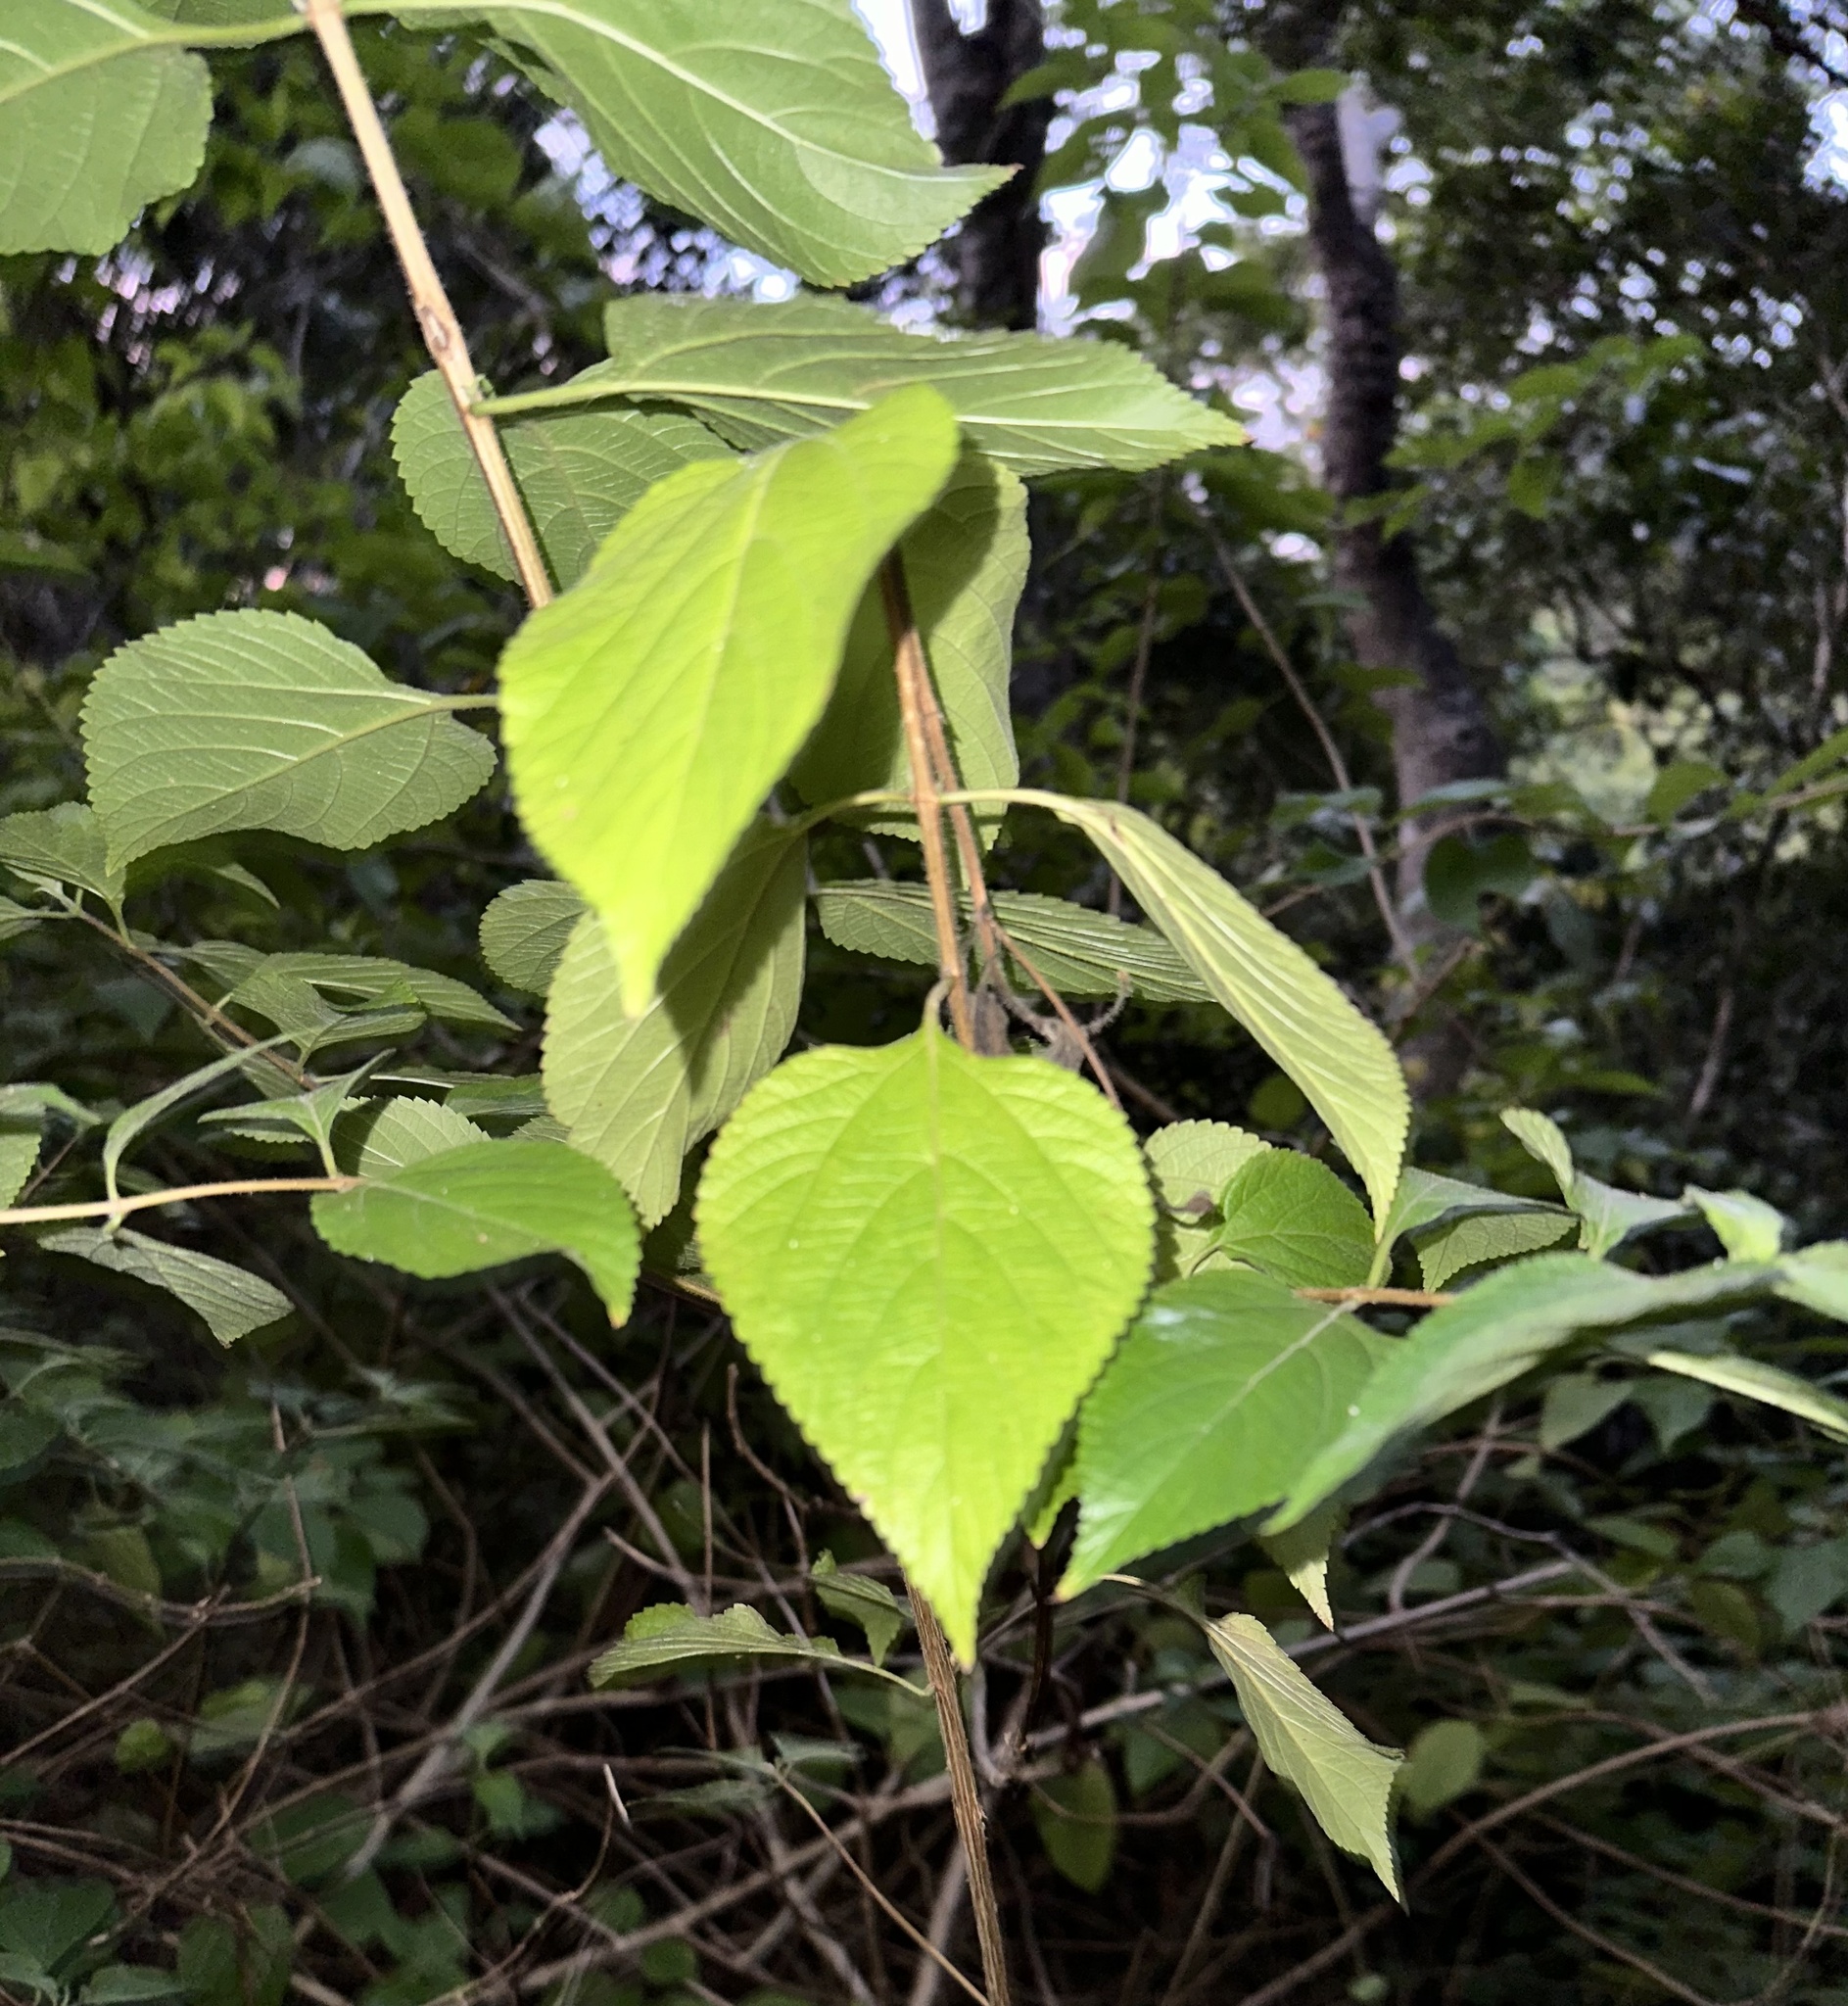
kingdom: Plantae
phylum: Tracheophyta
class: Magnoliopsida
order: Lamiales
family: Verbenaceae
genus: Lantana
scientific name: Lantana camara
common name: Lantana
